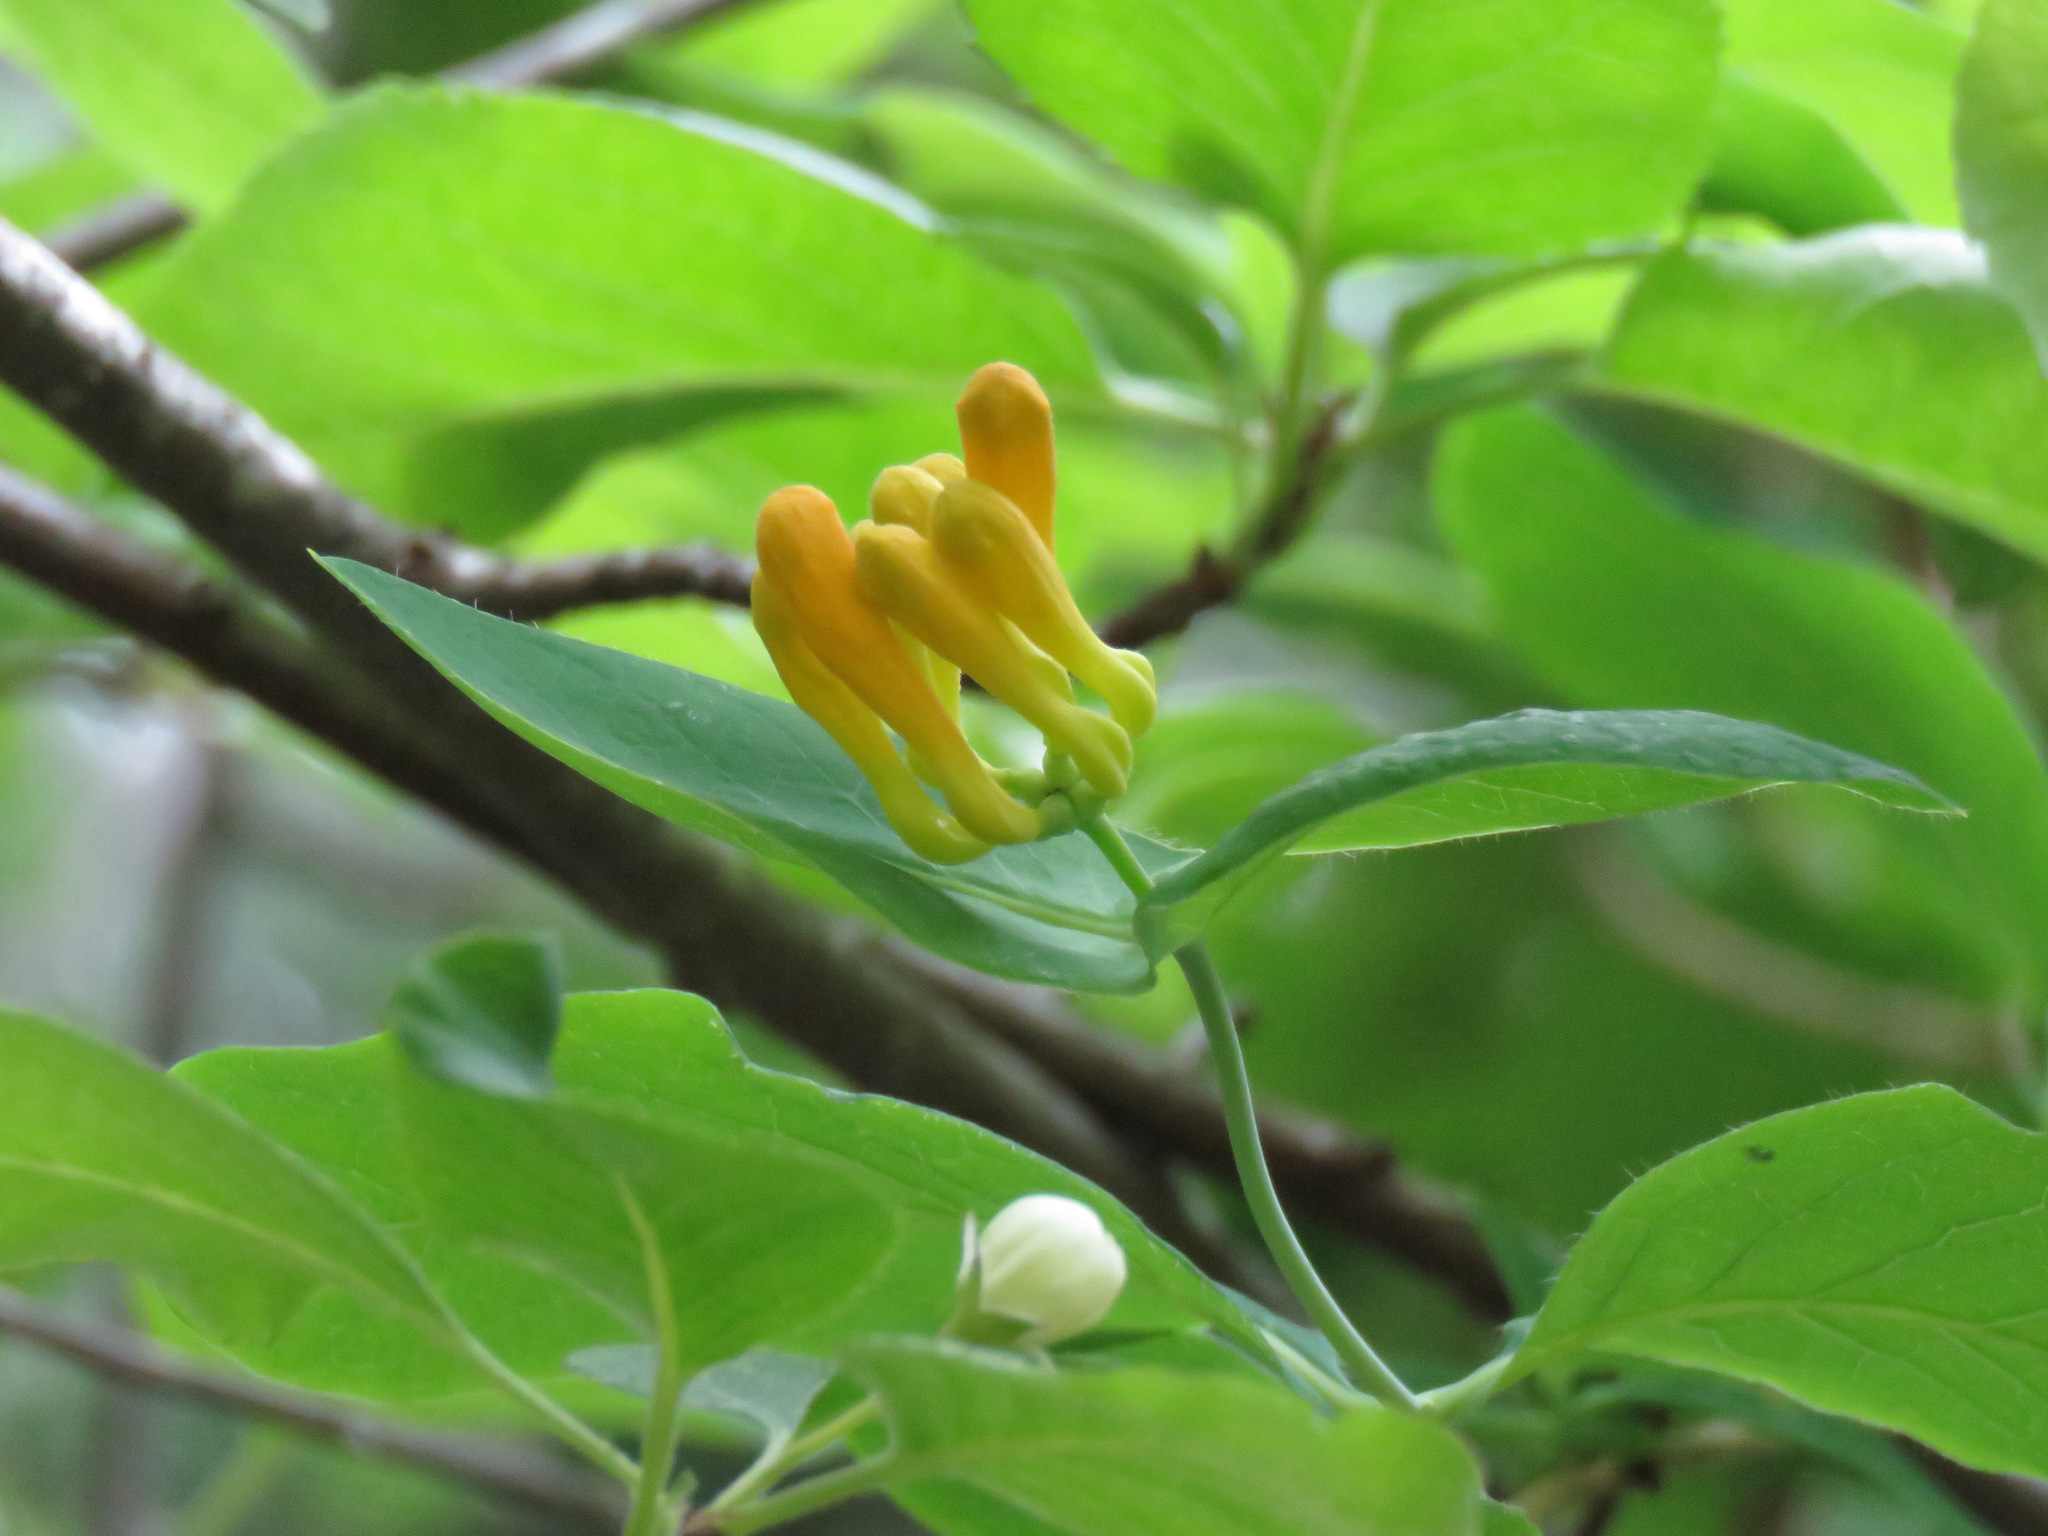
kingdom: Plantae
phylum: Tracheophyta
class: Magnoliopsida
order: Dipsacales
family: Caprifoliaceae
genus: Lonicera
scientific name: Lonicera ciliosa
